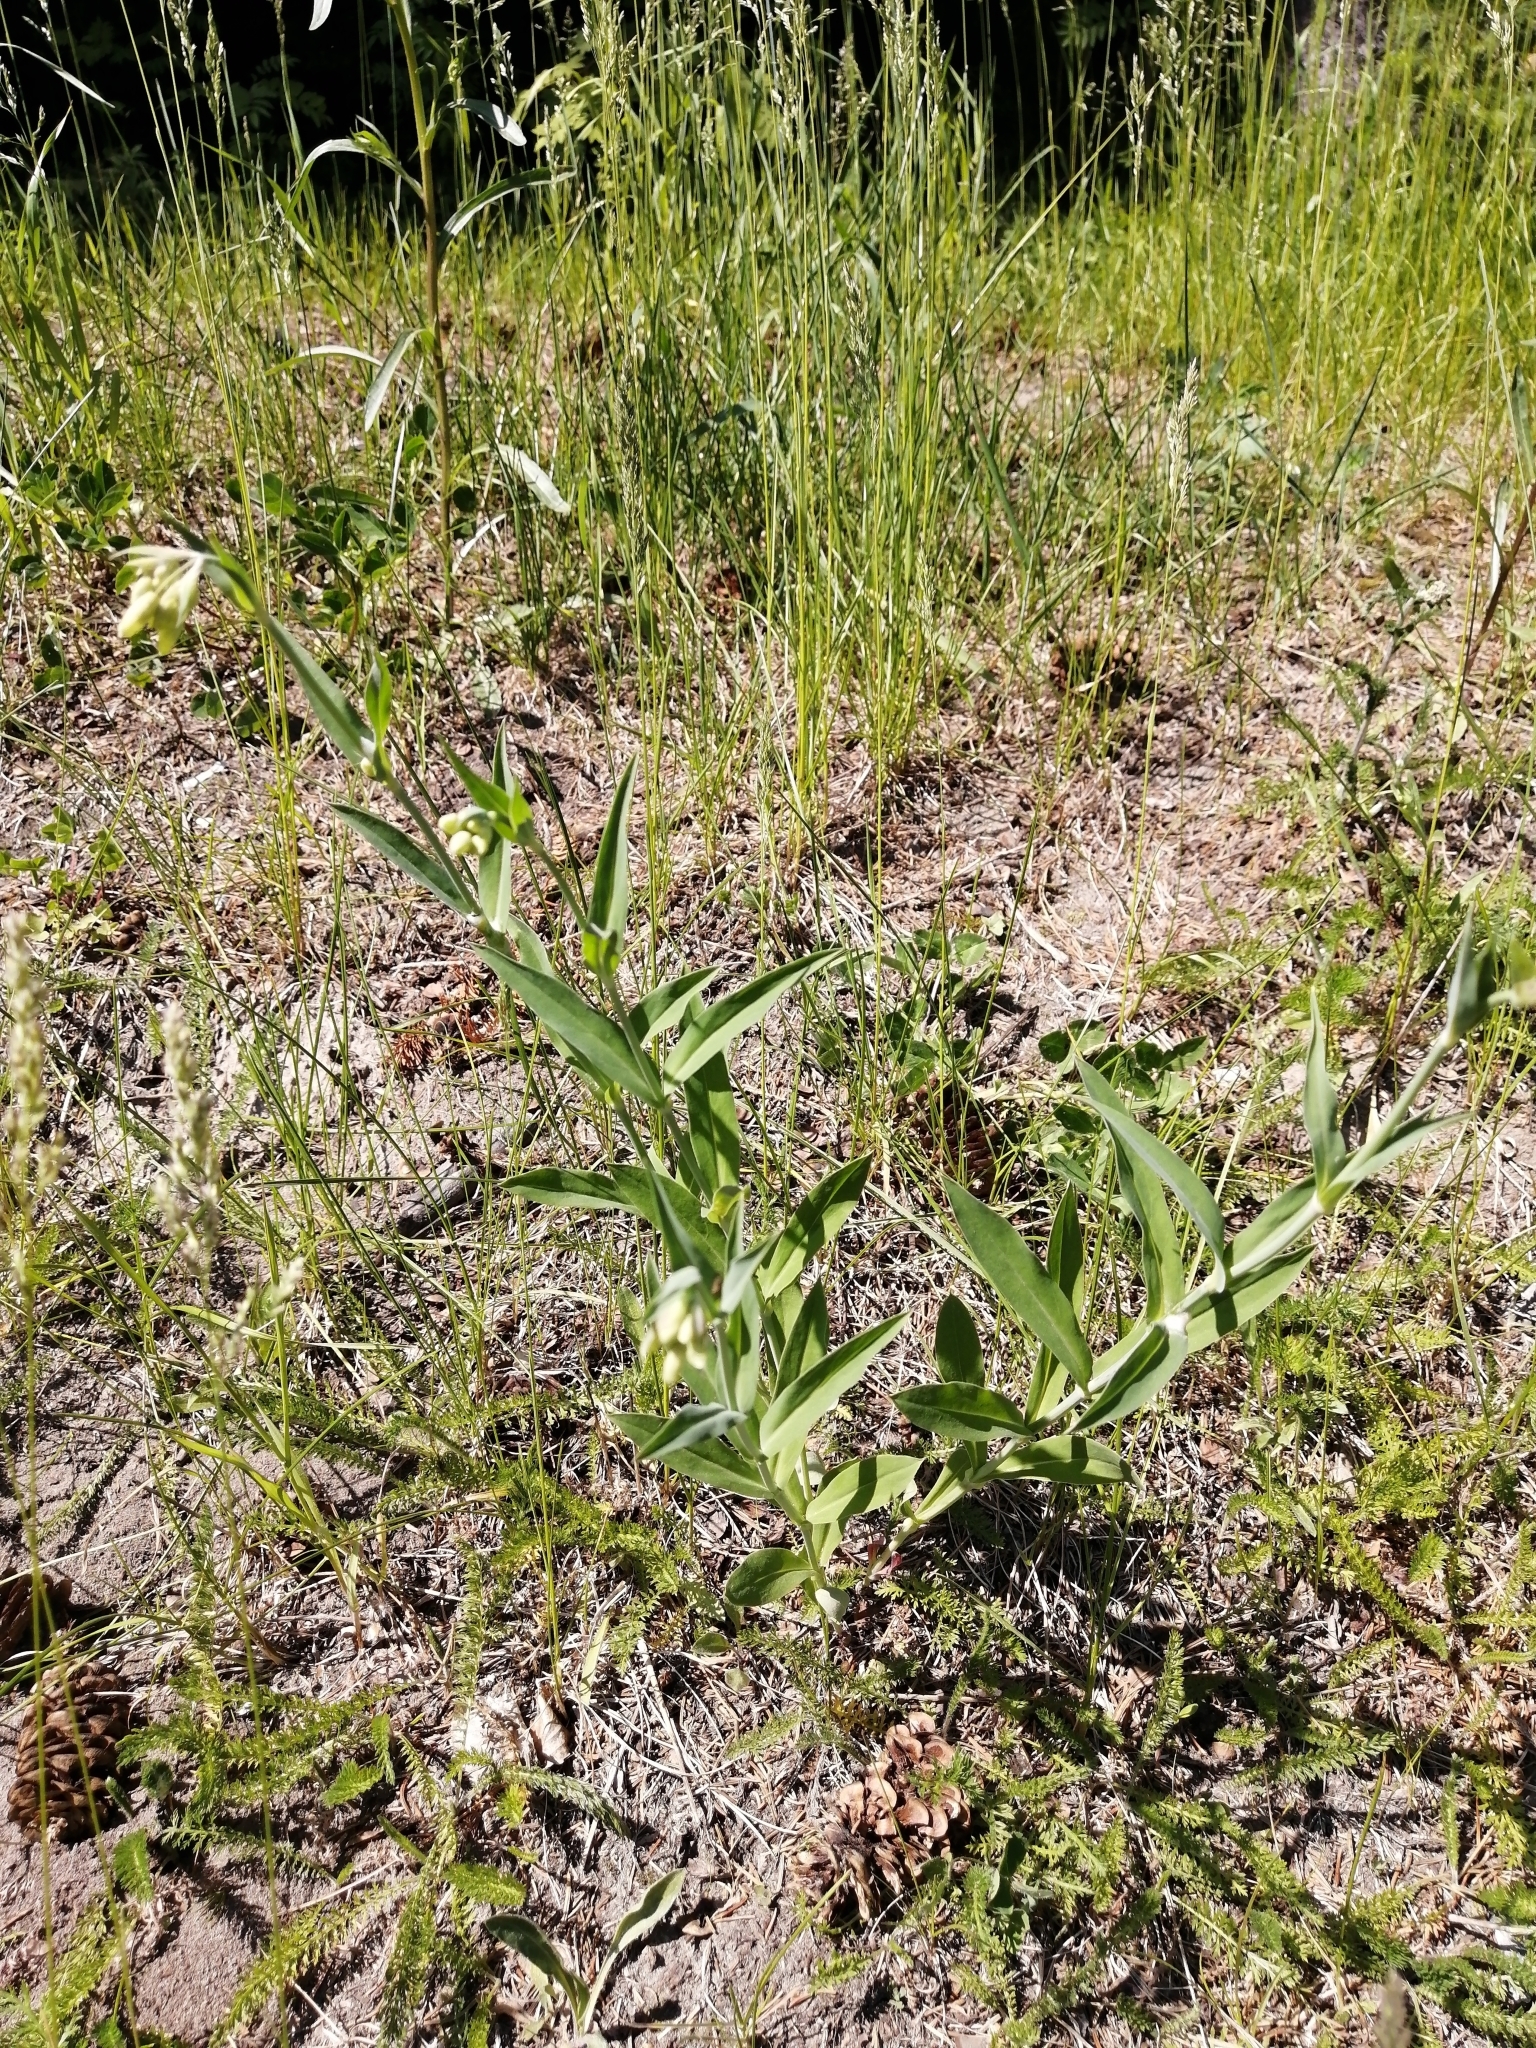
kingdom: Plantae
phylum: Tracheophyta
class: Magnoliopsida
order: Caryophyllales
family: Caryophyllaceae
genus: Silene
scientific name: Silene vulgaris
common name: Bladder campion
